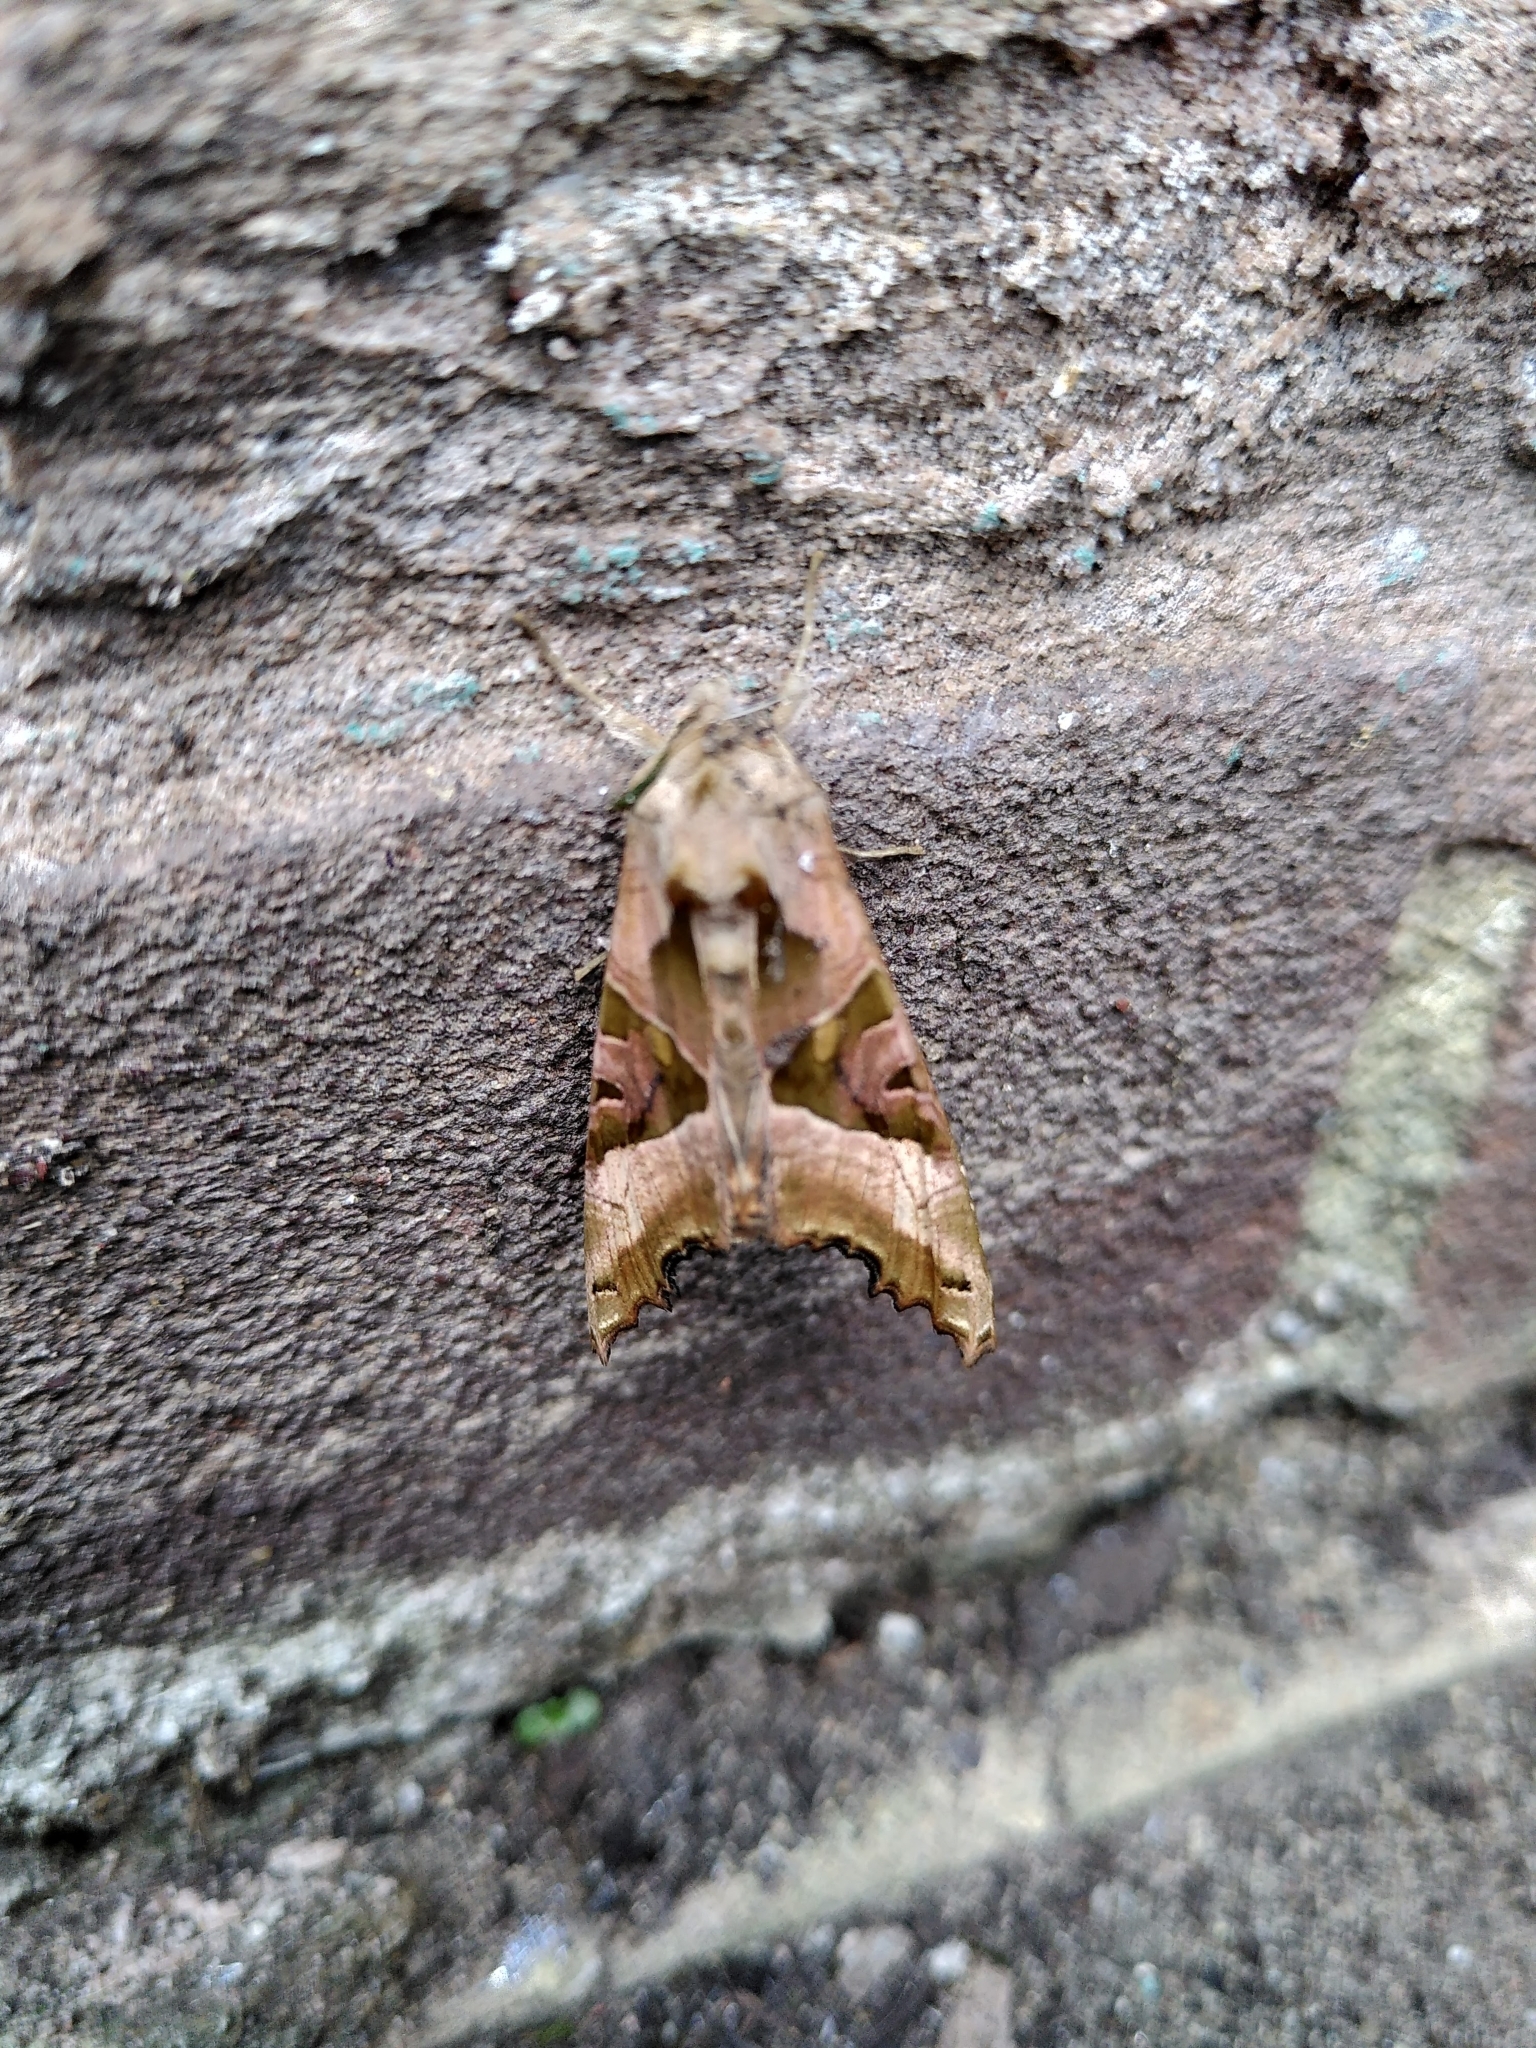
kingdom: Animalia
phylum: Arthropoda
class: Insecta
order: Lepidoptera
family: Noctuidae
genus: Phlogophora
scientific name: Phlogophora meticulosa
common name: Angle shades
